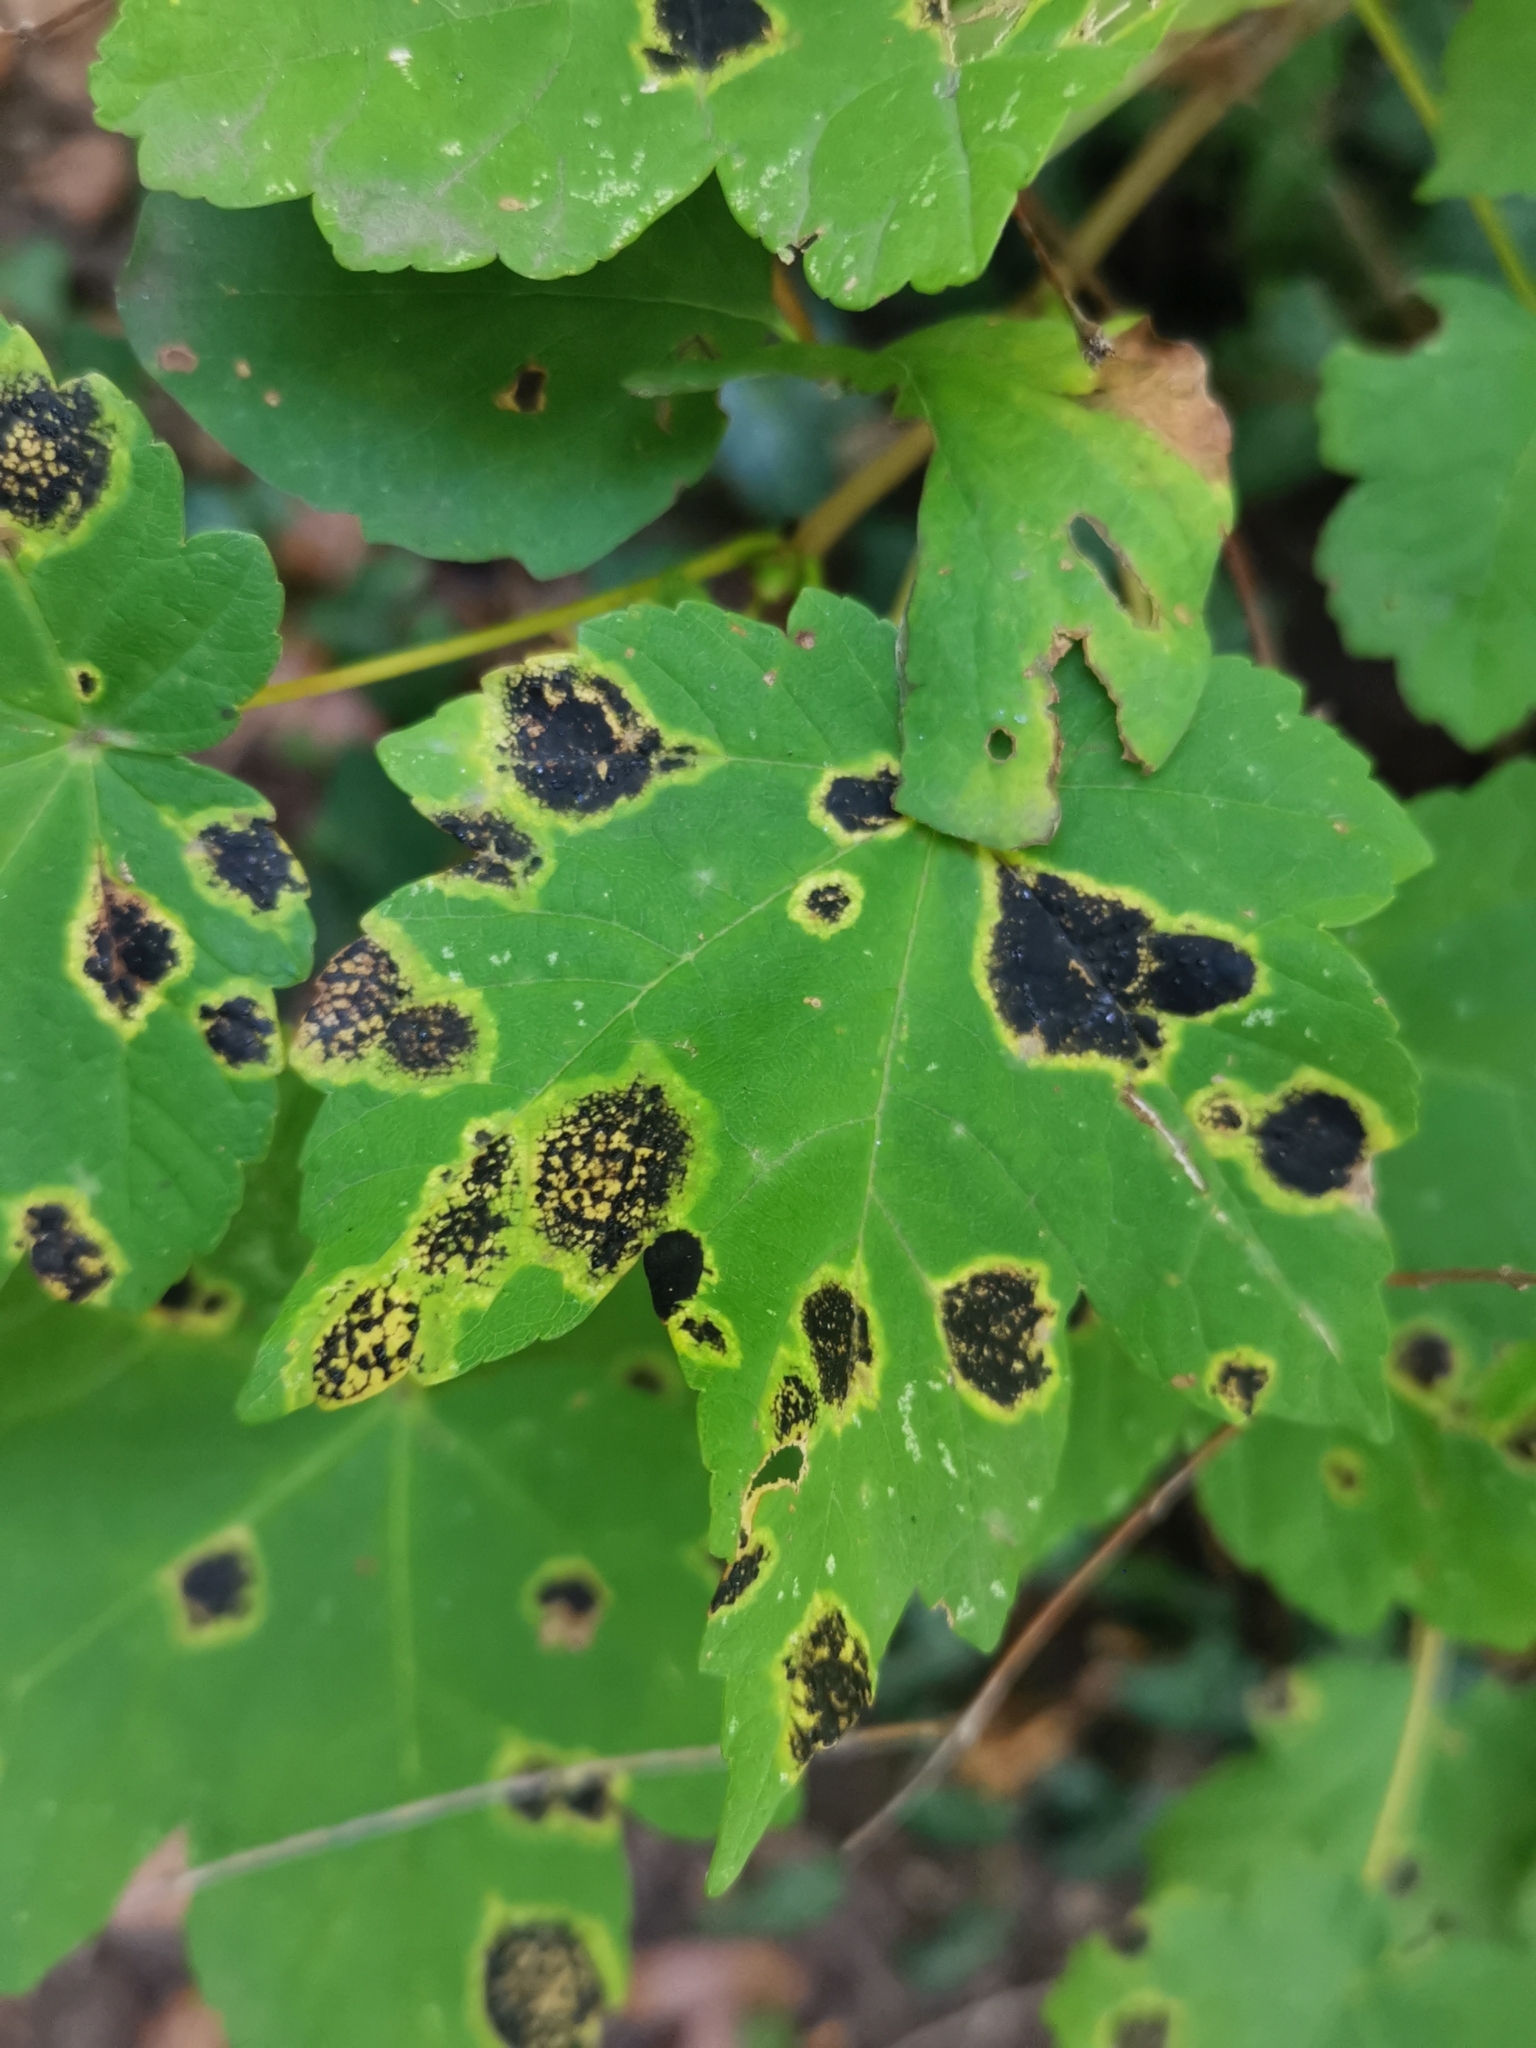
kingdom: Fungi
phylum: Ascomycota
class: Leotiomycetes
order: Rhytismatales
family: Rhytismataceae
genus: Rhytisma
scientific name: Rhytisma acerinum
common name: European tar spot
